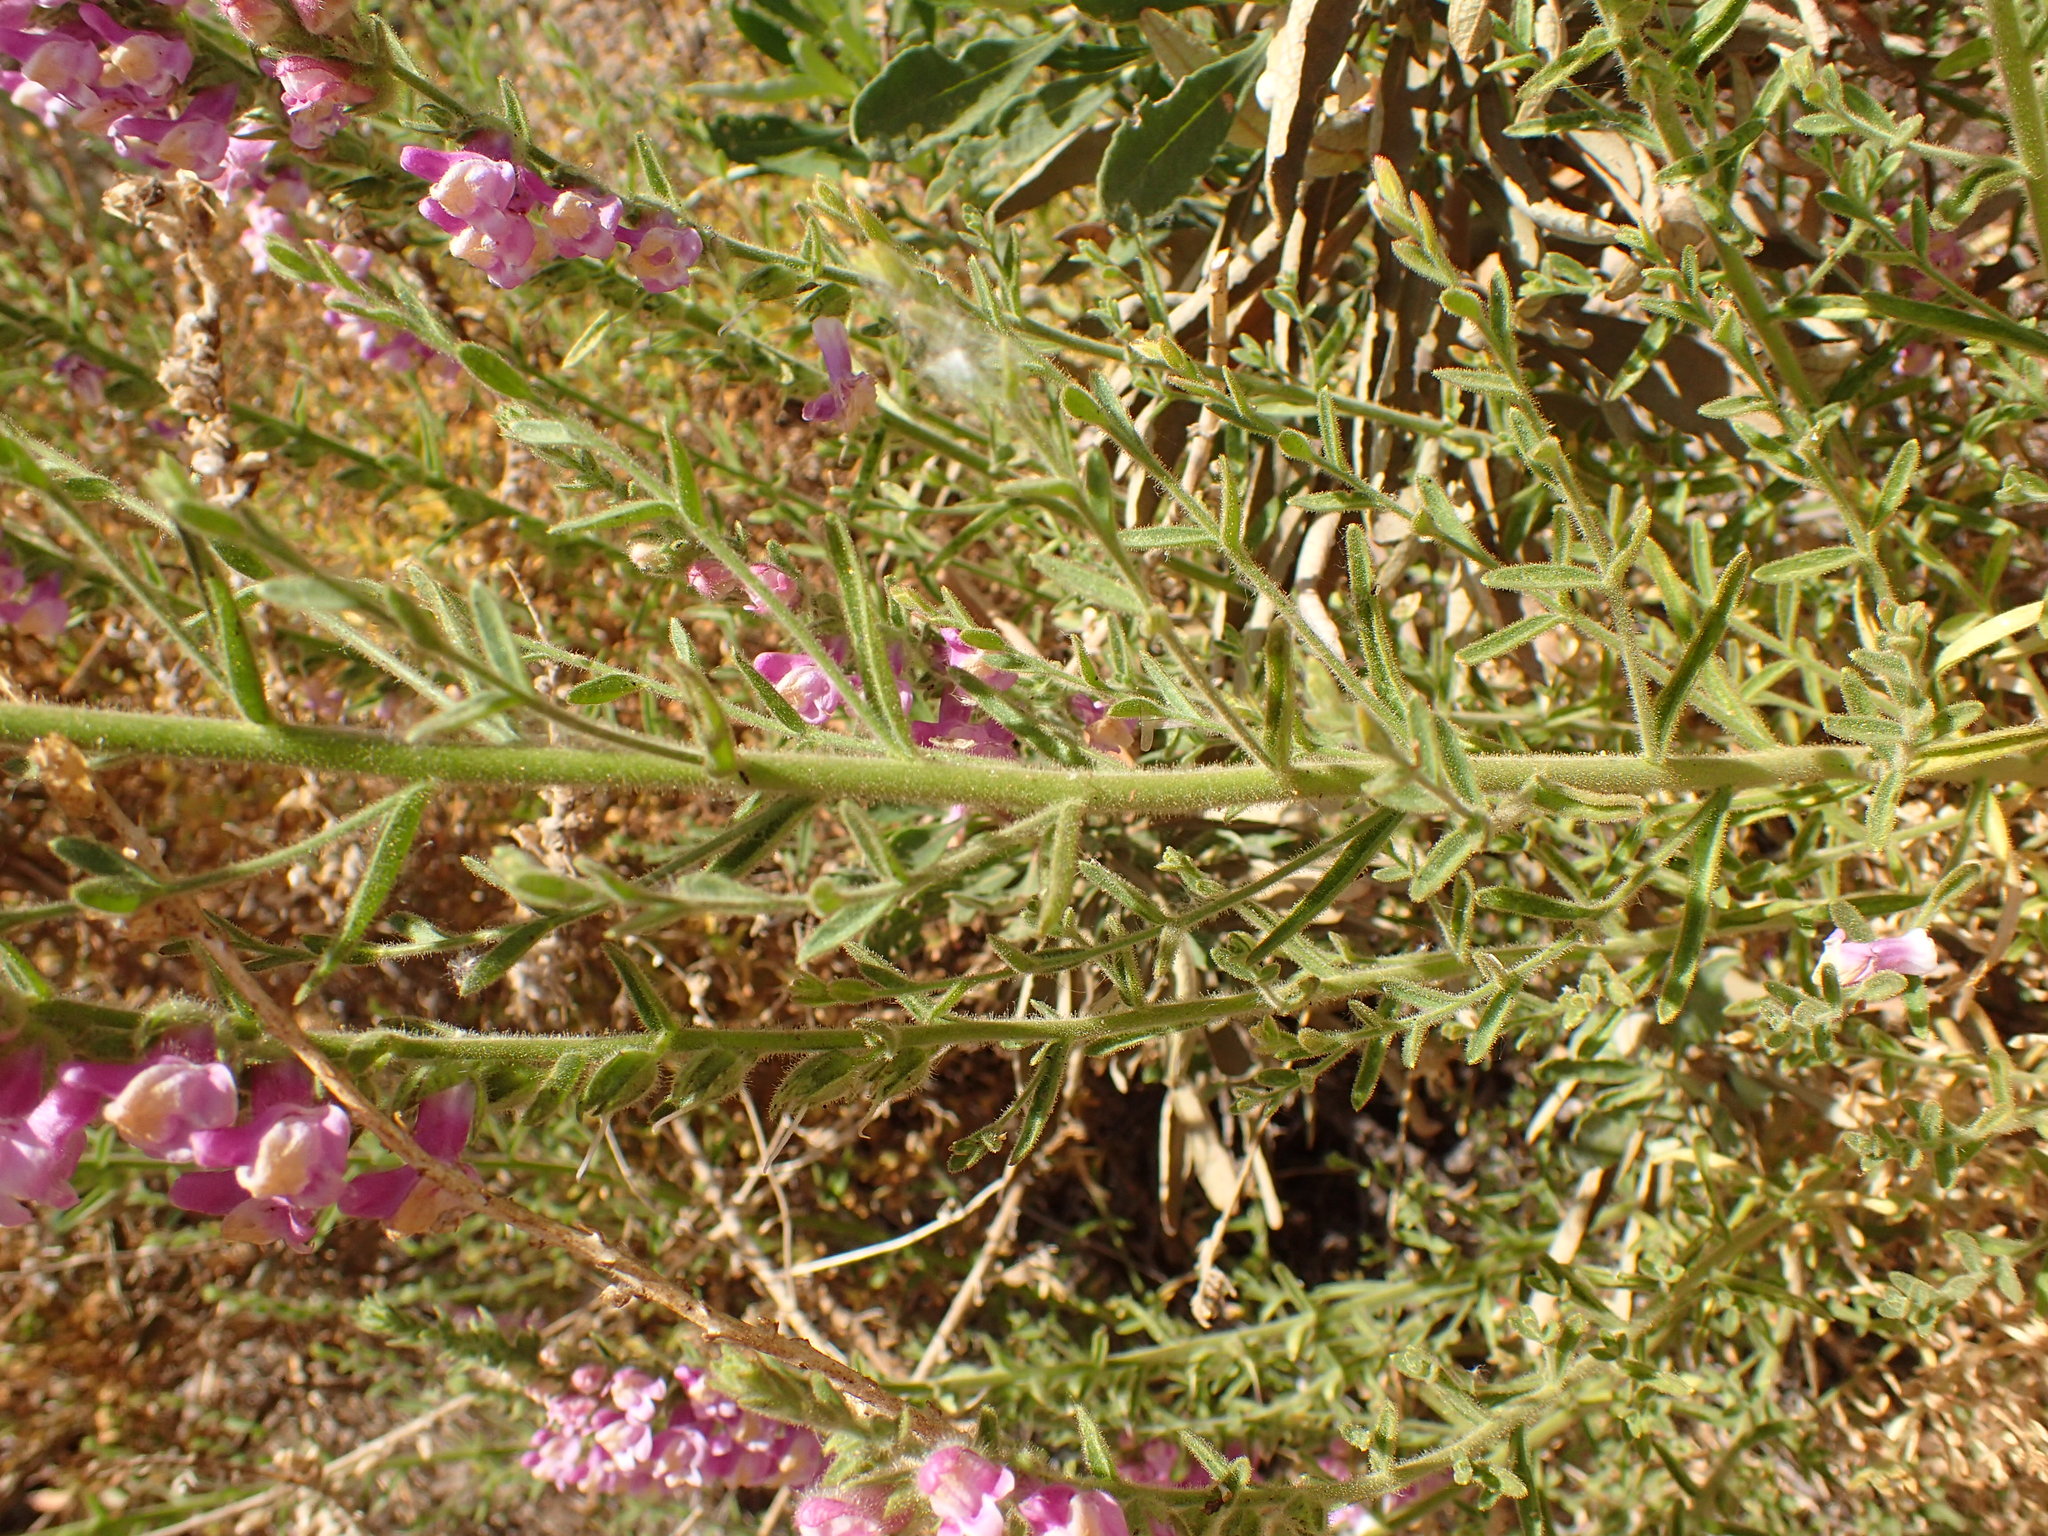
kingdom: Plantae
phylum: Tracheophyta
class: Magnoliopsida
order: Lamiales
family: Plantaginaceae
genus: Sairocarpus
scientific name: Sairocarpus multiflorus
